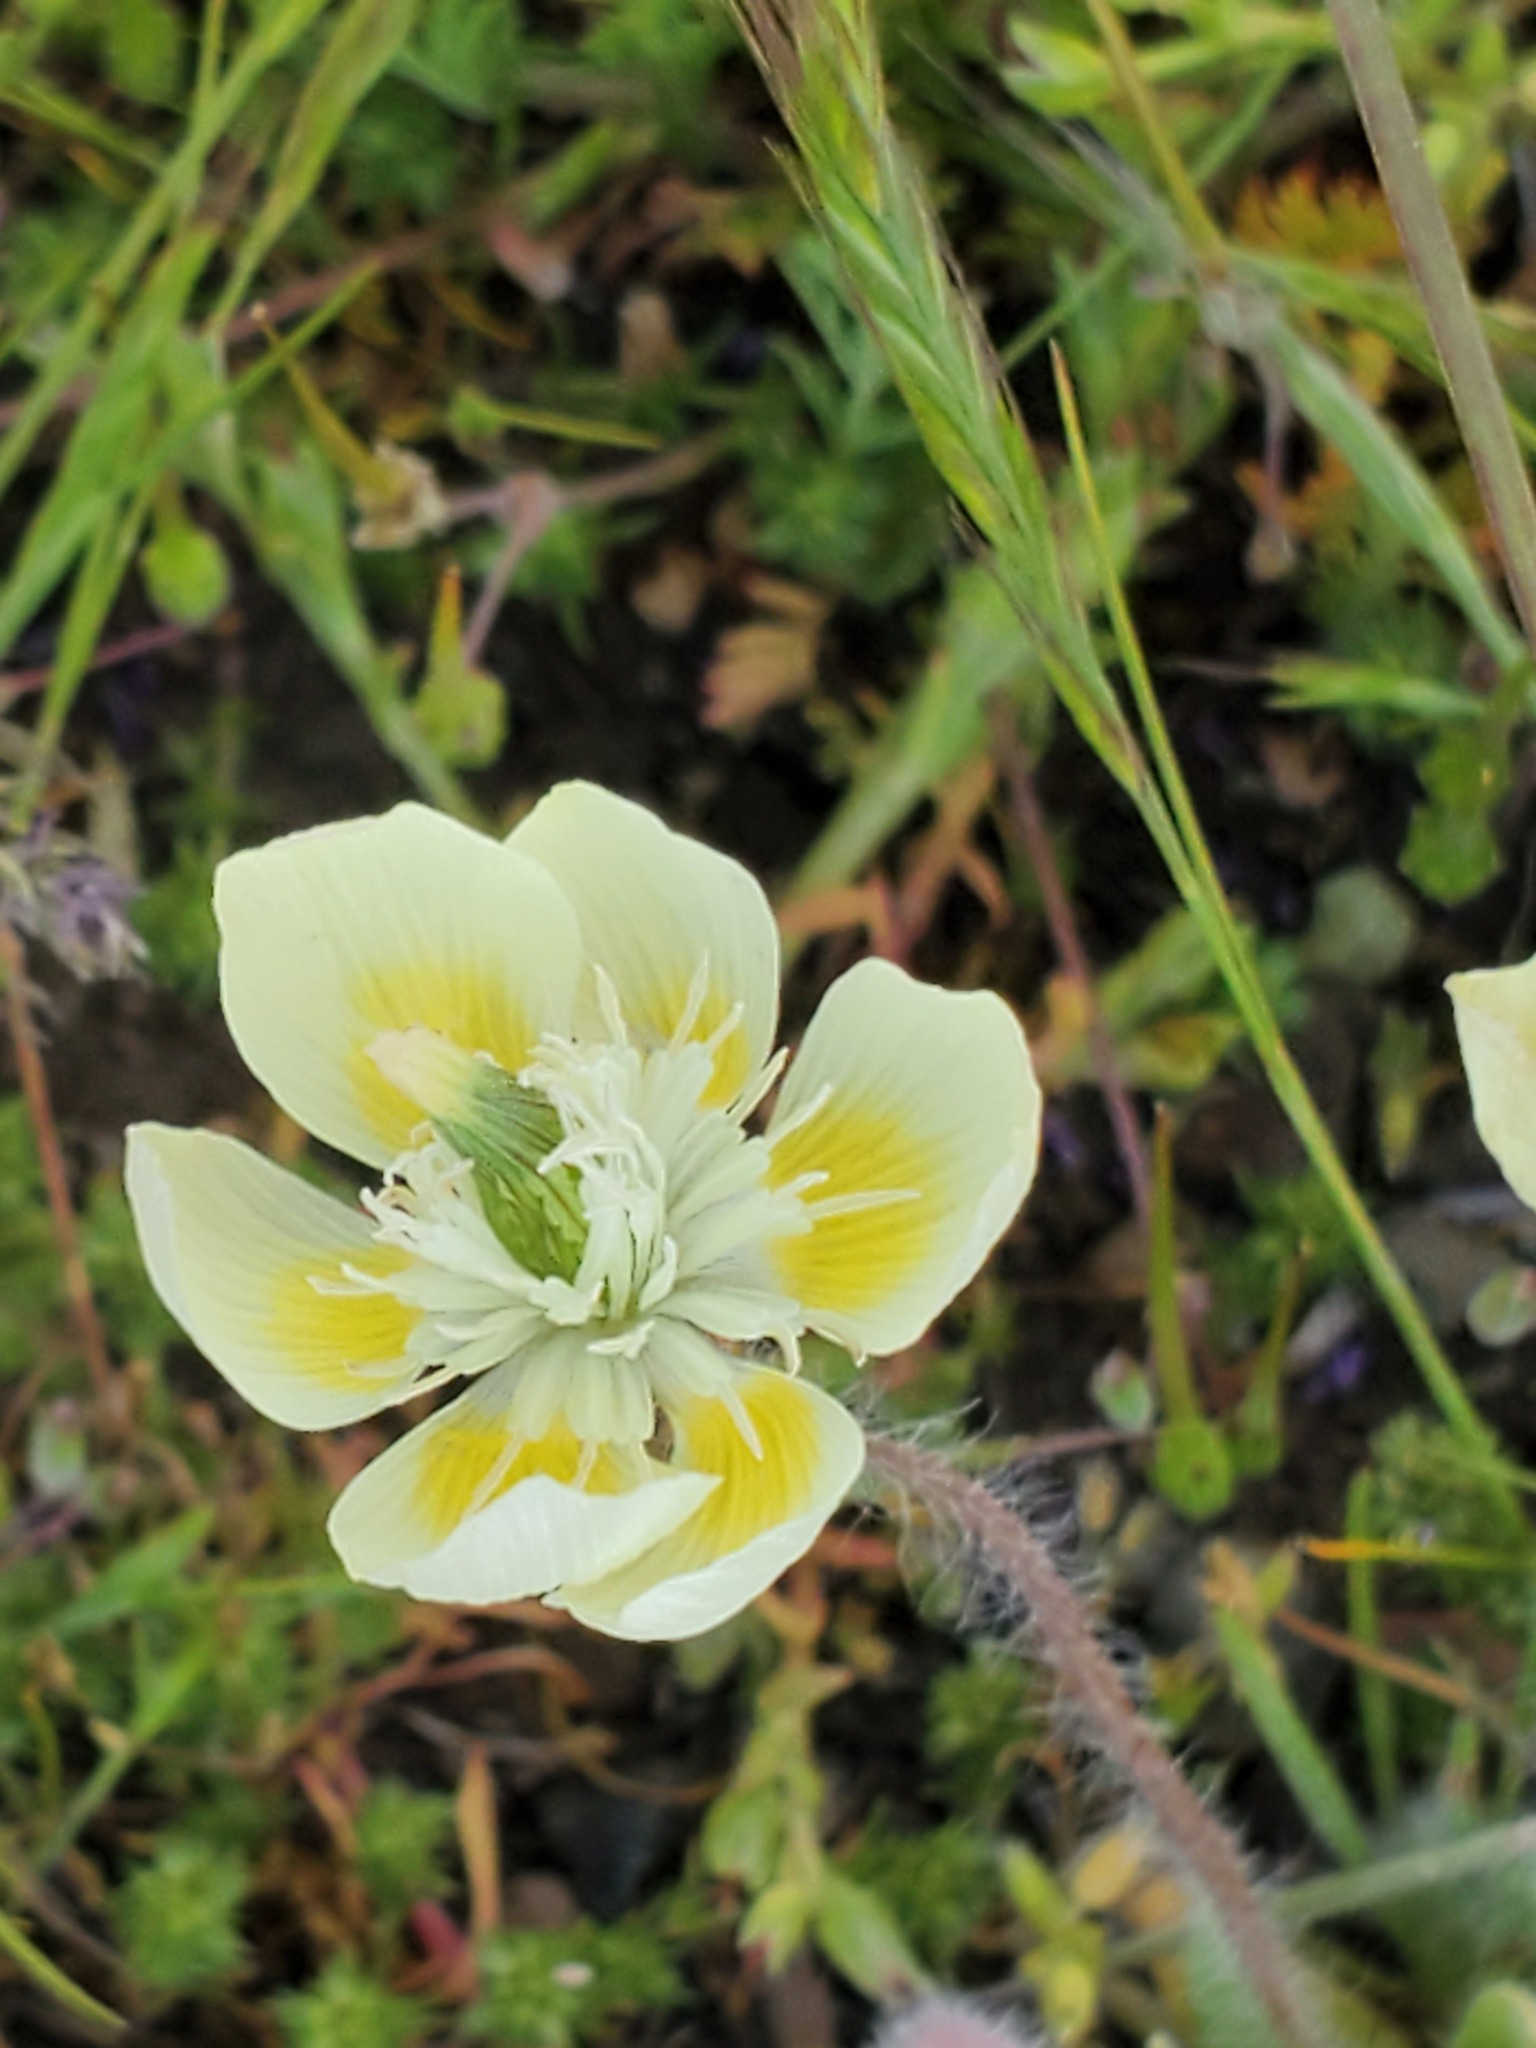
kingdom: Plantae
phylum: Tracheophyta
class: Magnoliopsida
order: Ranunculales
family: Papaveraceae
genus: Platystemon
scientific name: Platystemon californicus
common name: Cream-cups
